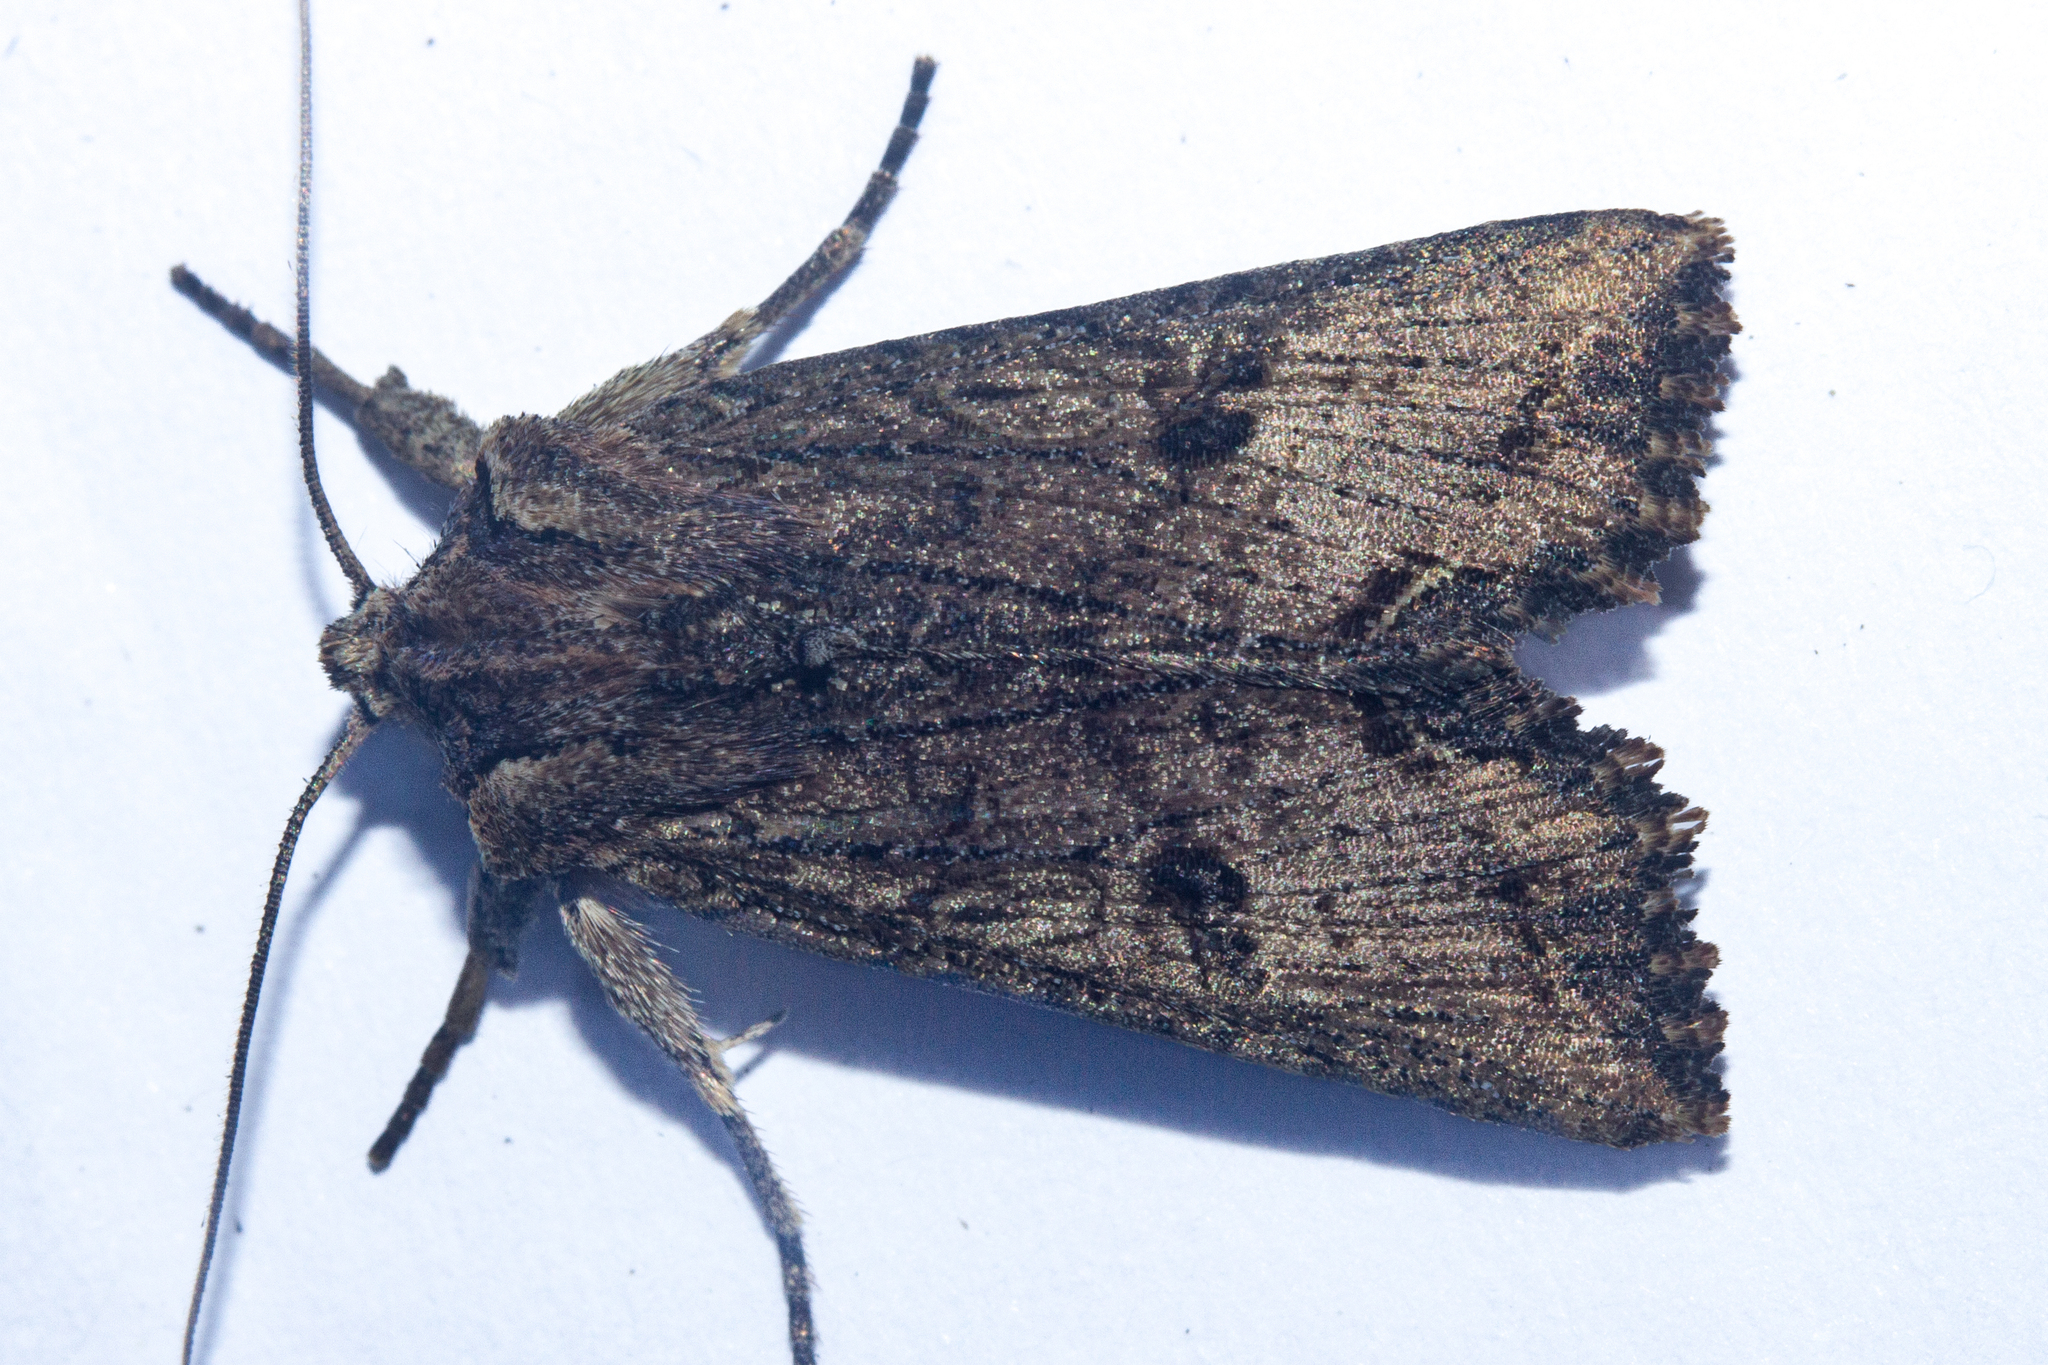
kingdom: Animalia
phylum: Arthropoda
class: Insecta
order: Lepidoptera
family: Noctuidae
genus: Meterana
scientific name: Meterana coeleno
